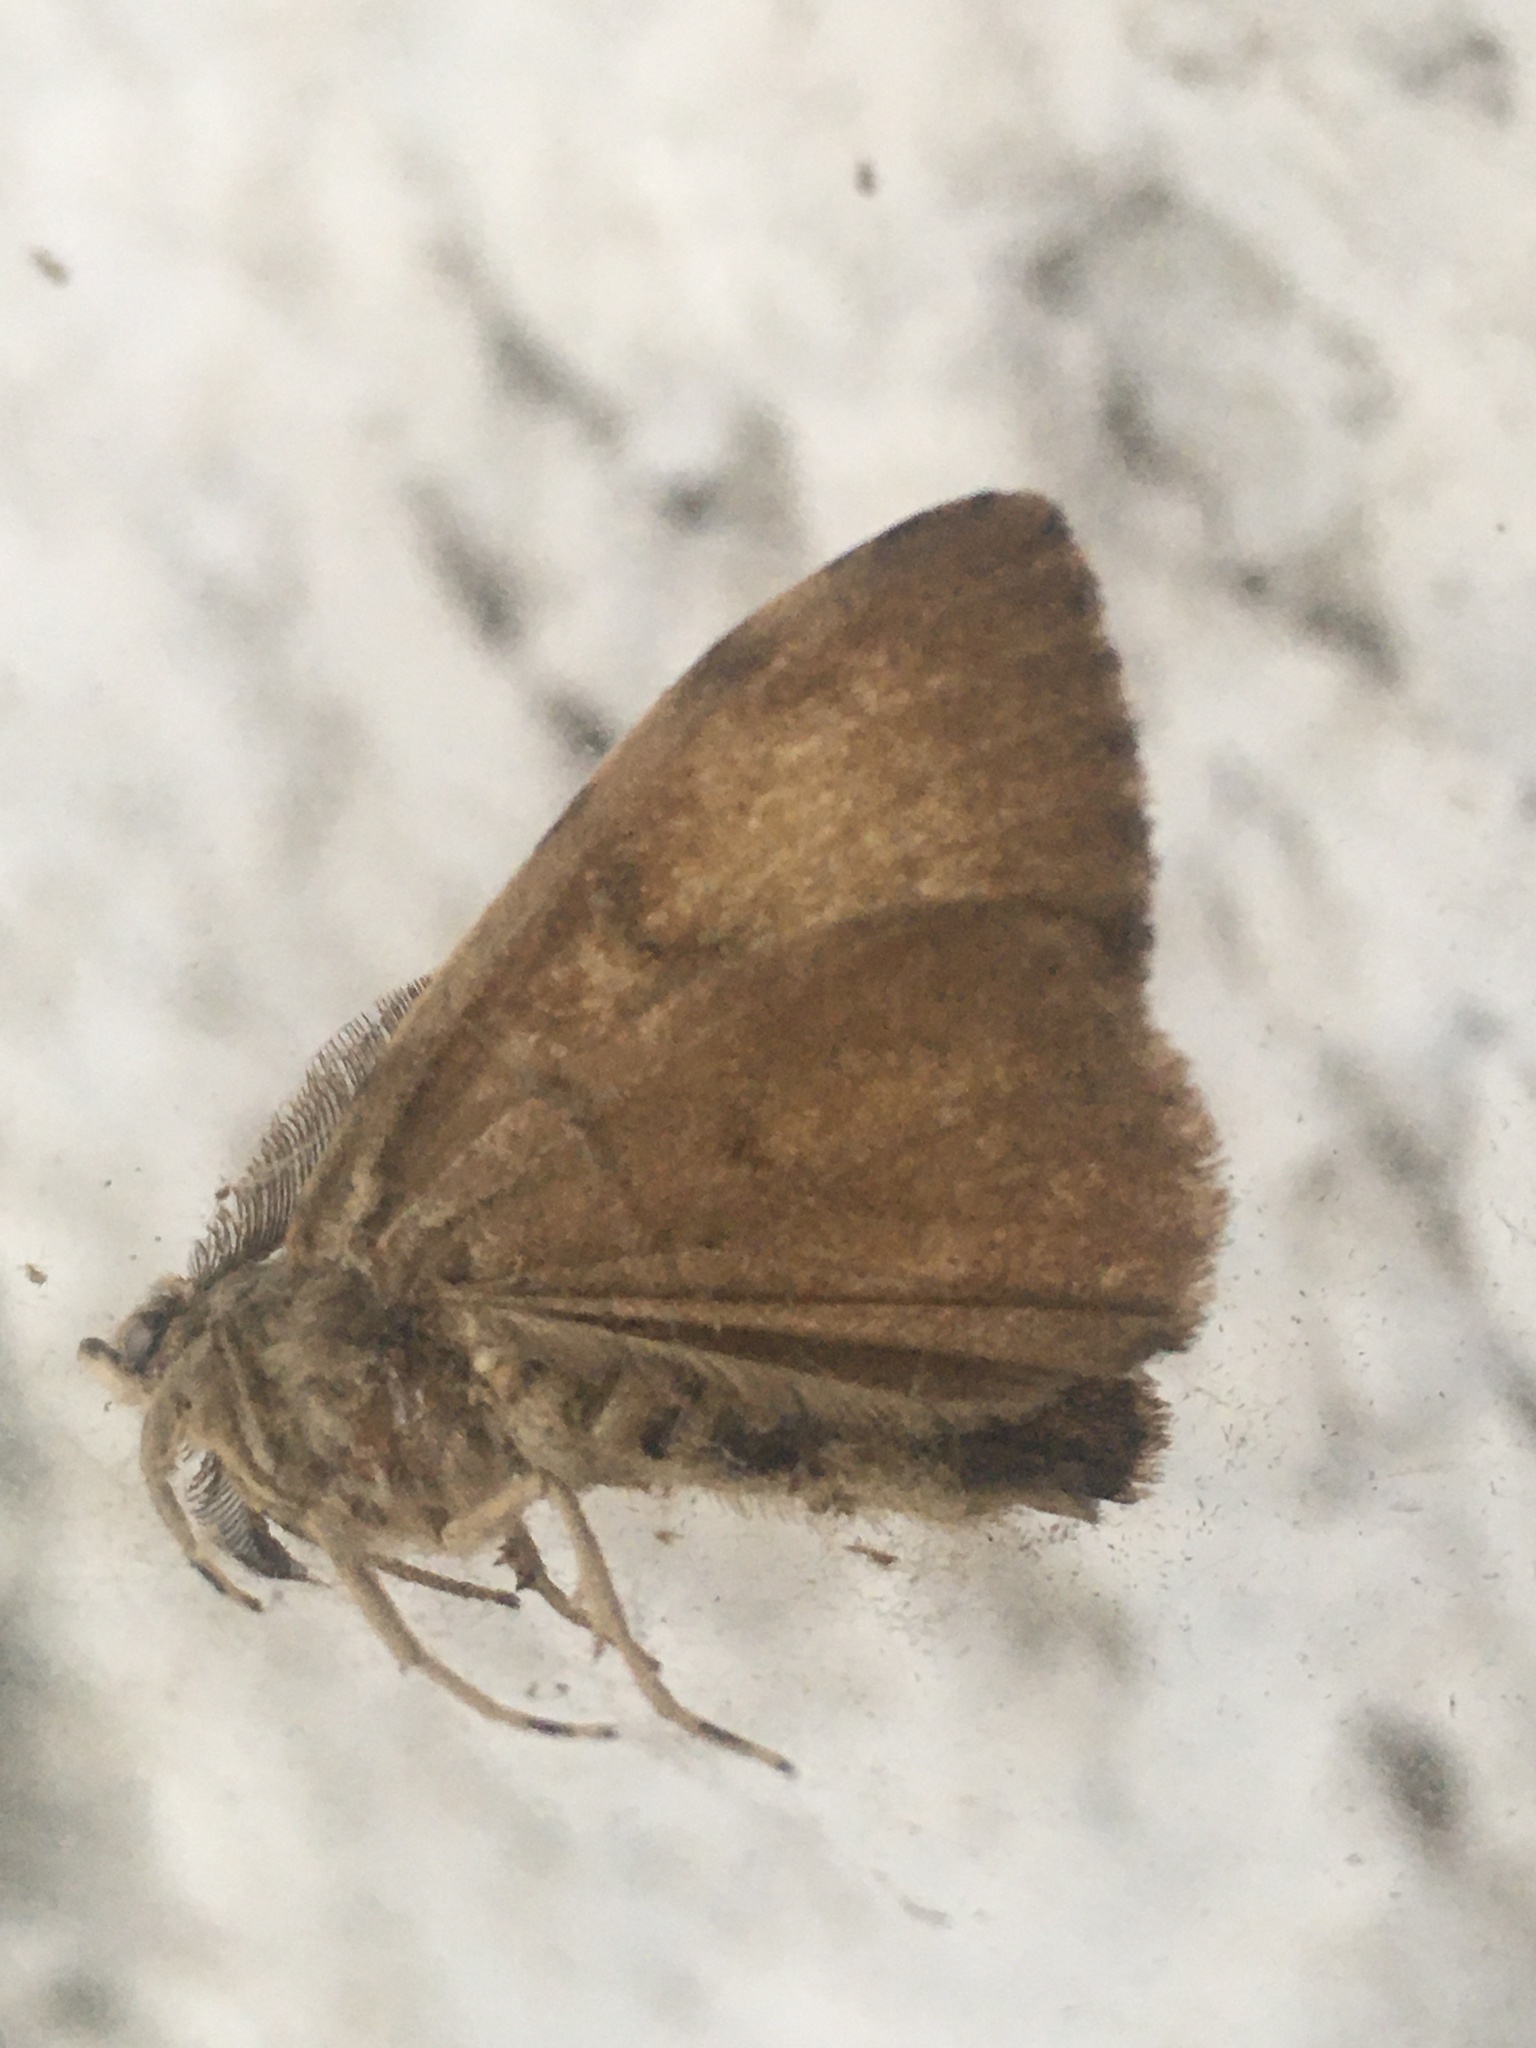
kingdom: Animalia
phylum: Arthropoda
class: Insecta
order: Lepidoptera
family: Erebidae
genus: Lymantria
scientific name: Lymantria dispar
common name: Gypsy moth
